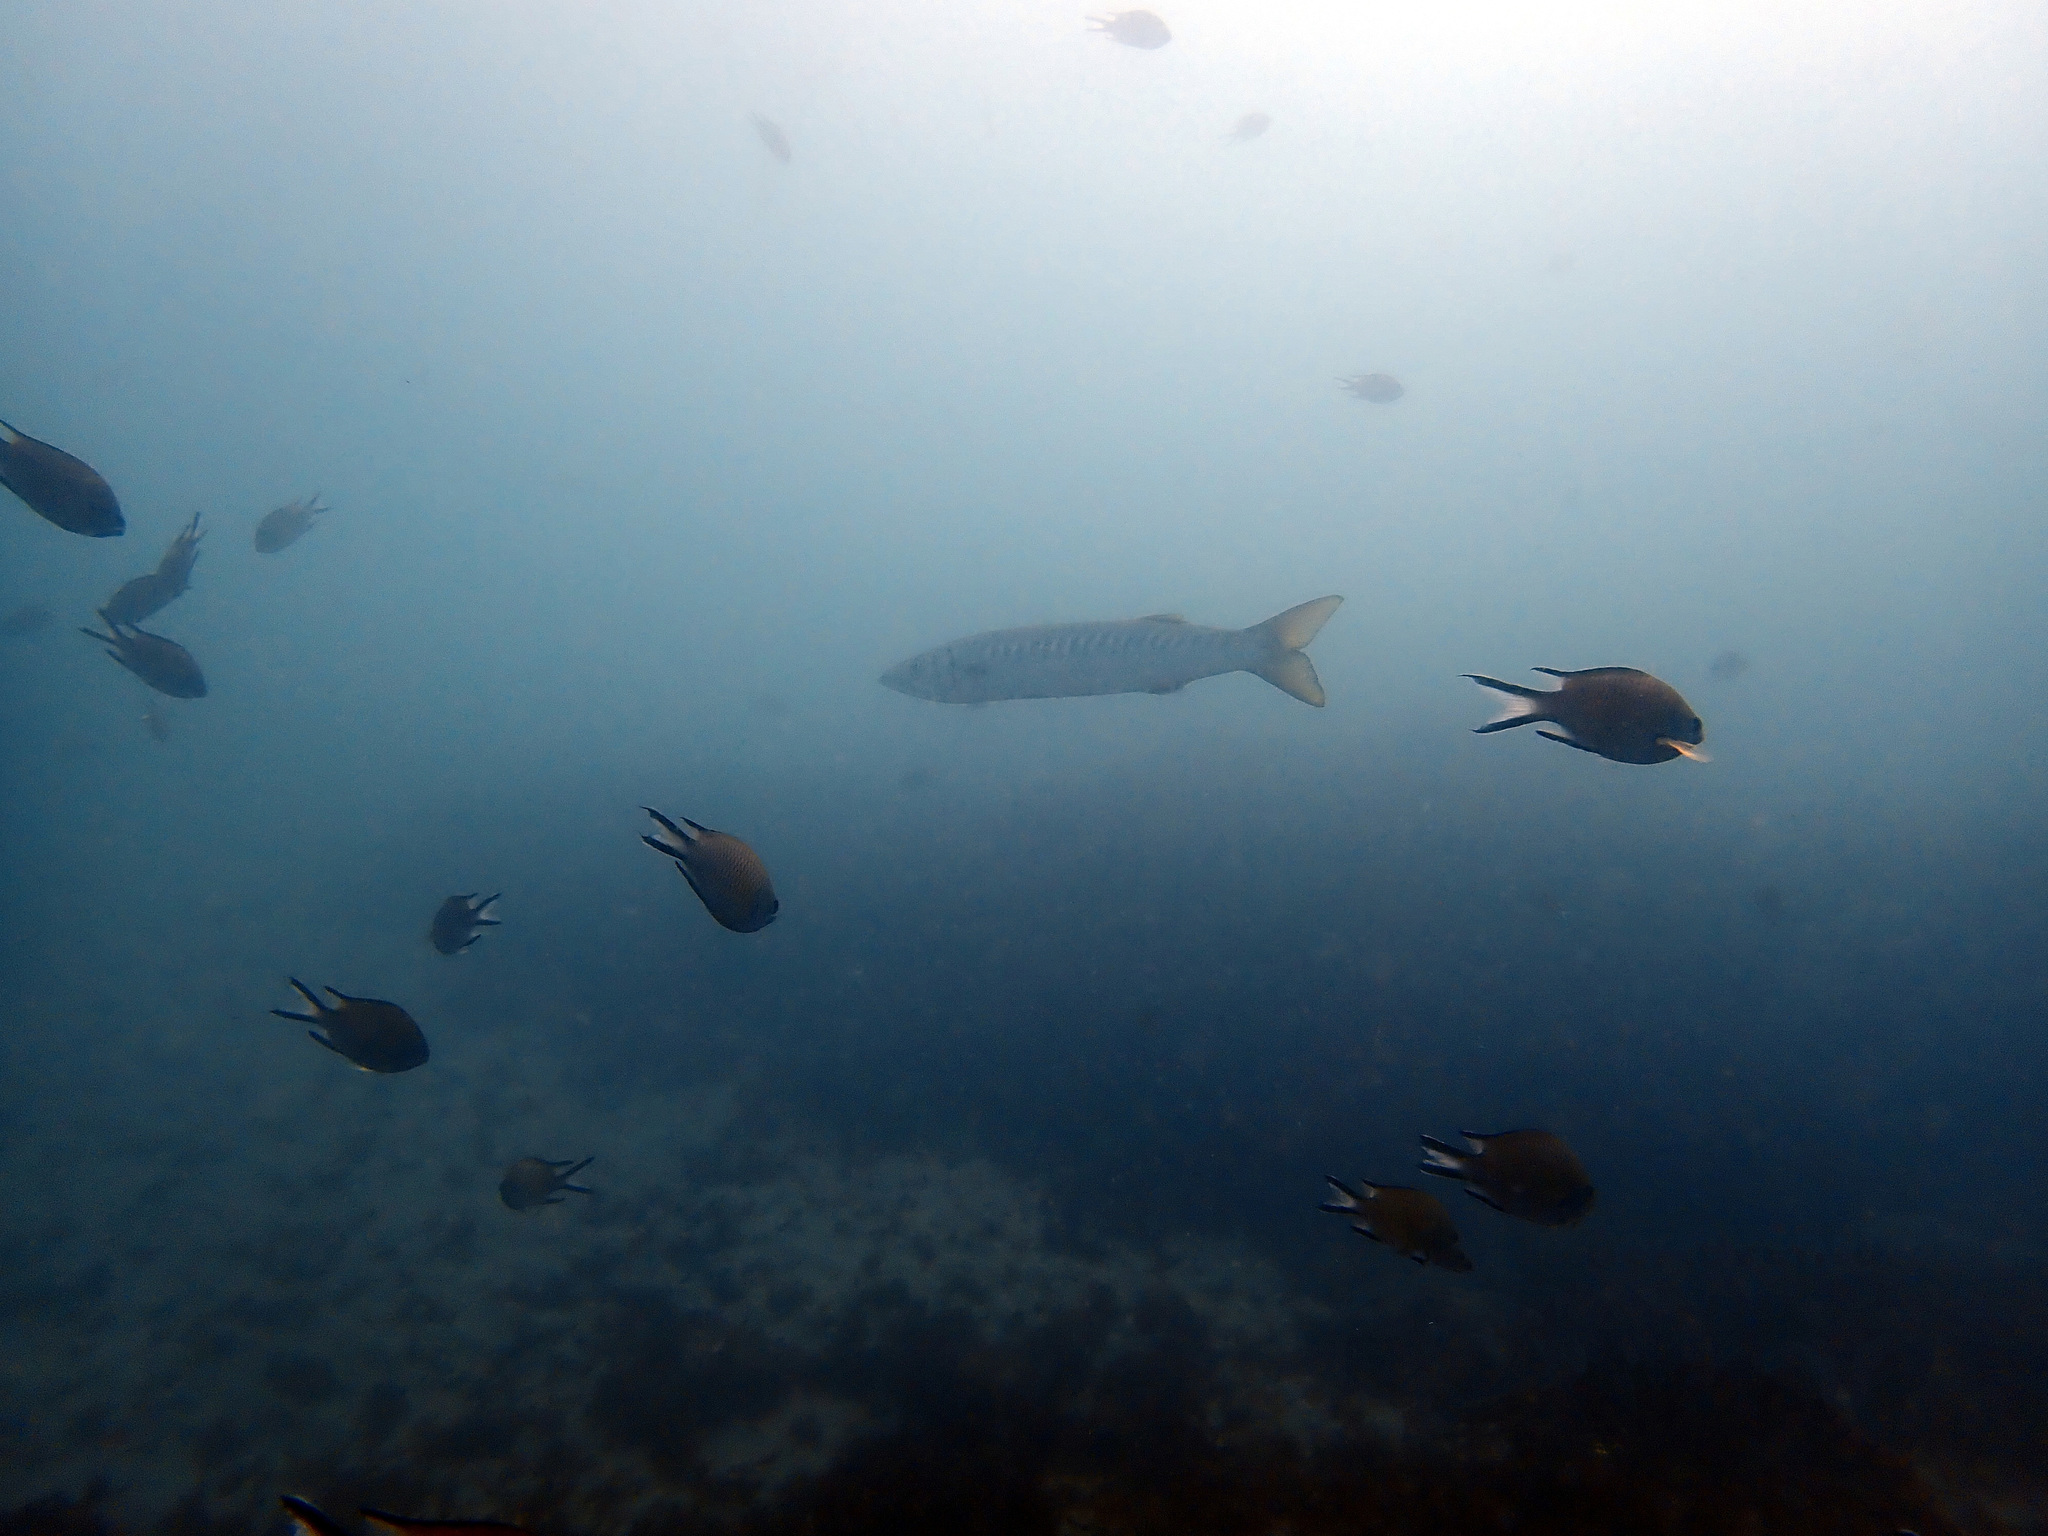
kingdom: Animalia
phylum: Chordata
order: Perciformes
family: Pomacentridae
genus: Chromis
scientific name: Chromis limbata
